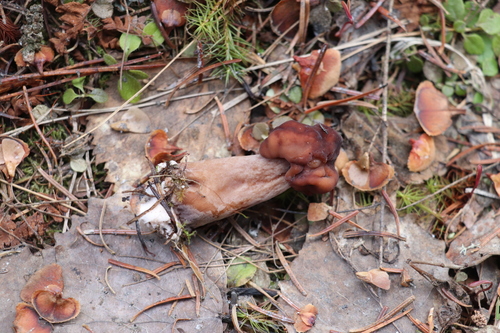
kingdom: Fungi
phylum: Ascomycota
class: Pezizomycetes
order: Pezizales
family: Discinaceae
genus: Gyromitra
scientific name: Gyromitra infula
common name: Pouched false morel
